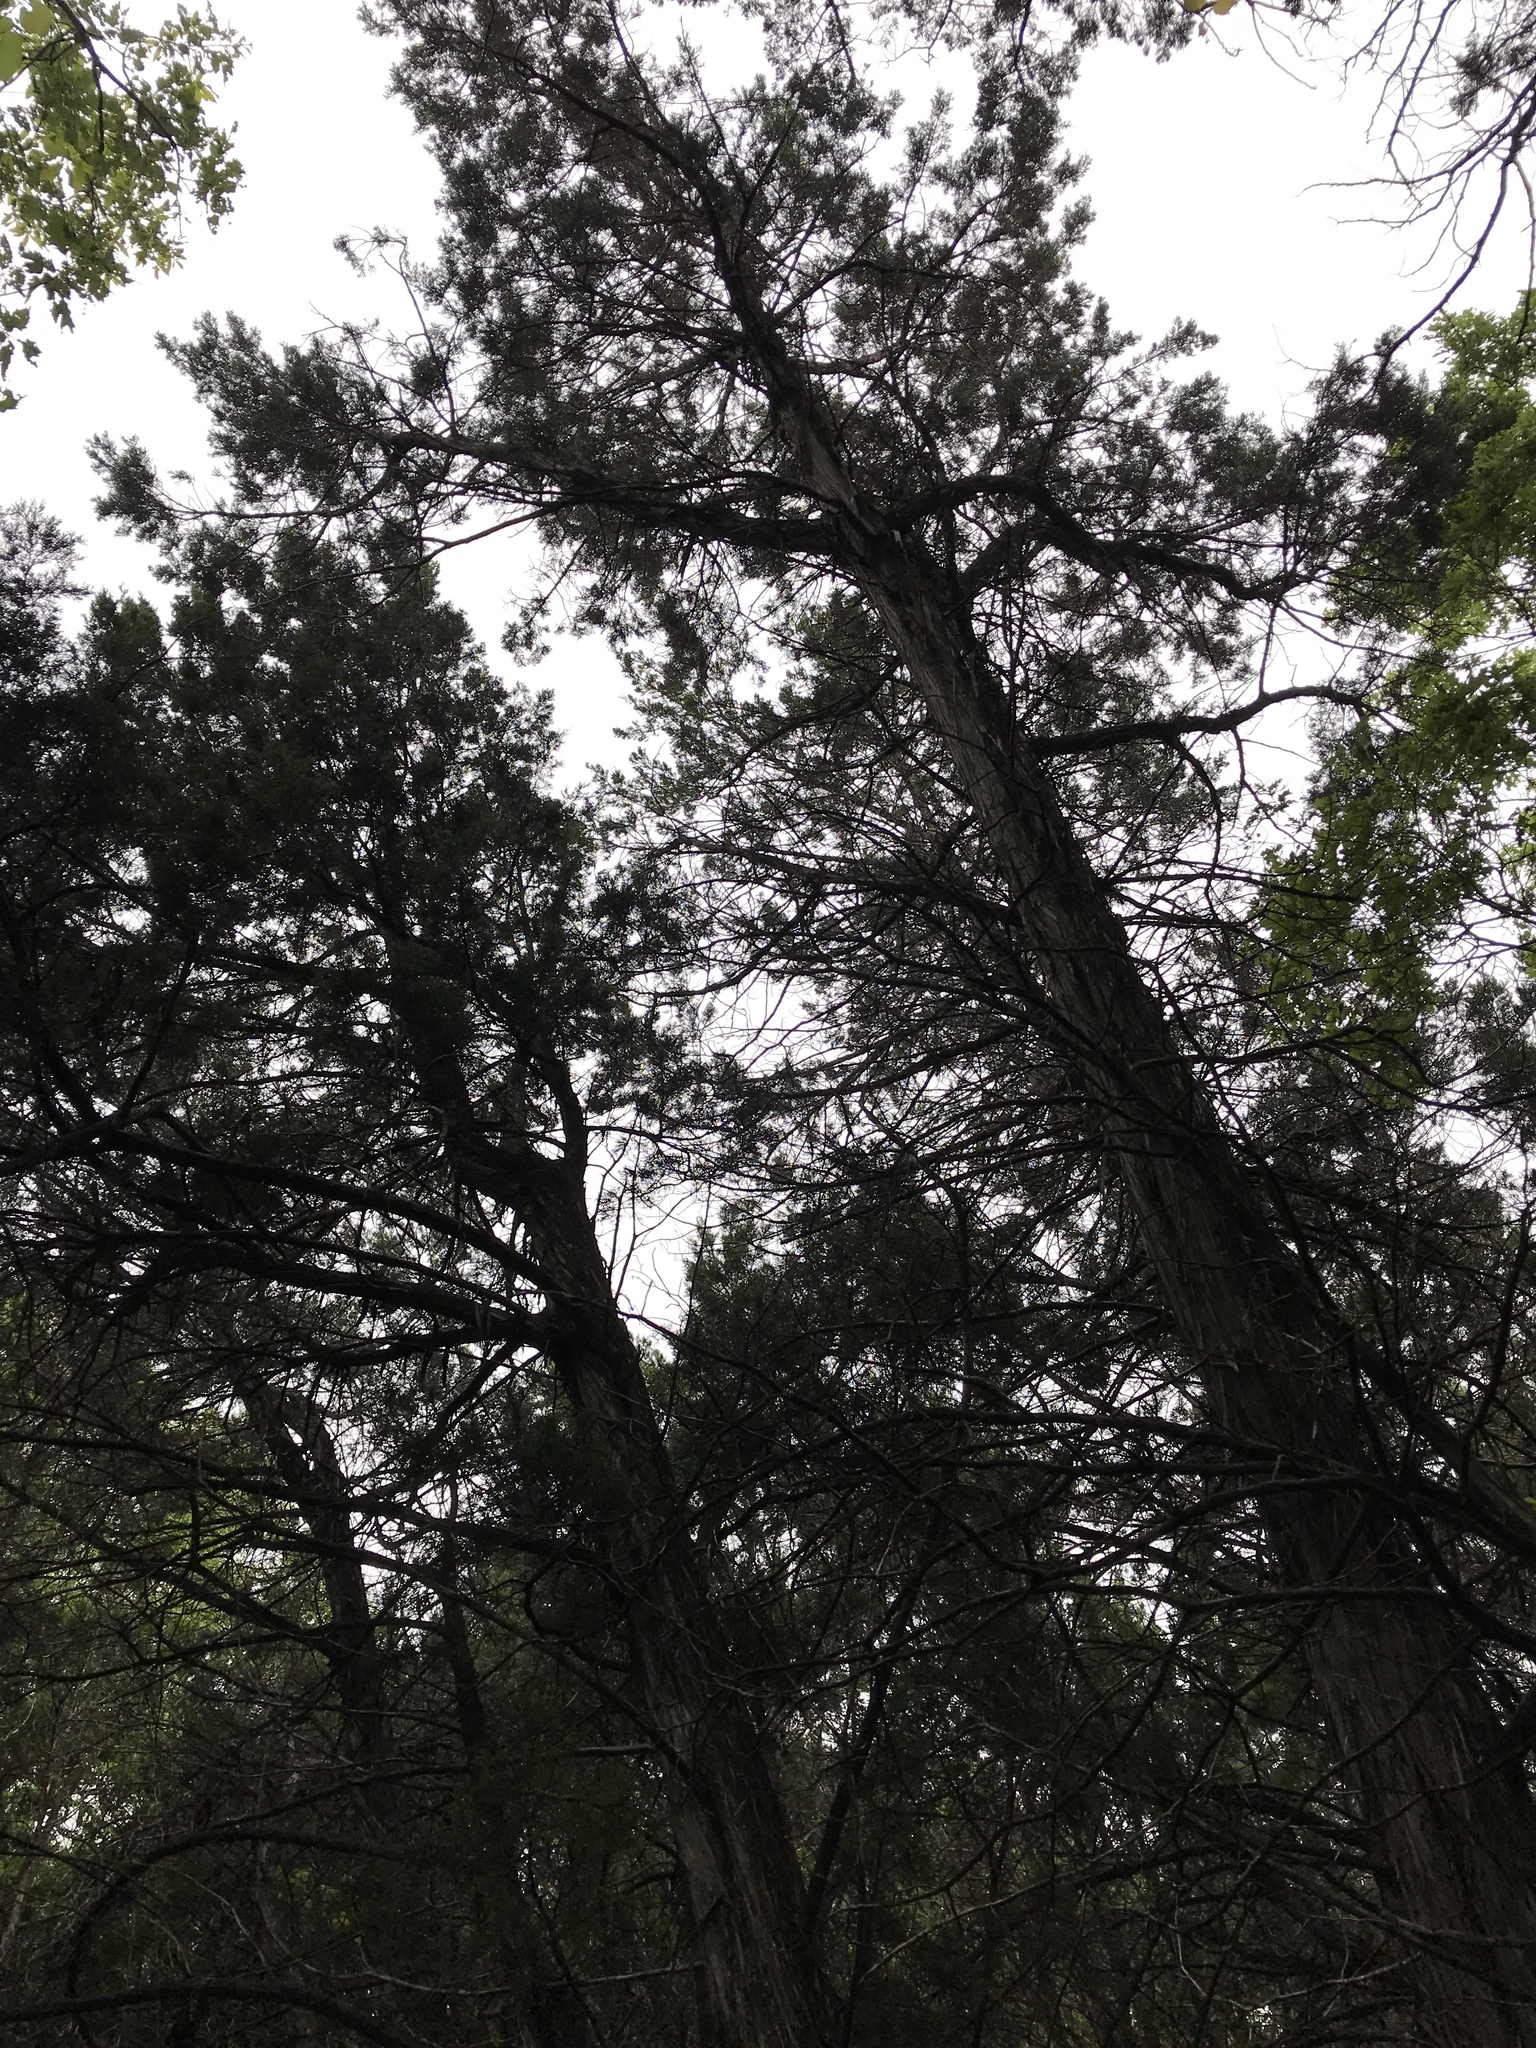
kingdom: Plantae
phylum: Tracheophyta
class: Pinopsida
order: Pinales
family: Cupressaceae
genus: Juniperus
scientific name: Juniperus ashei
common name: Mexican juniper
